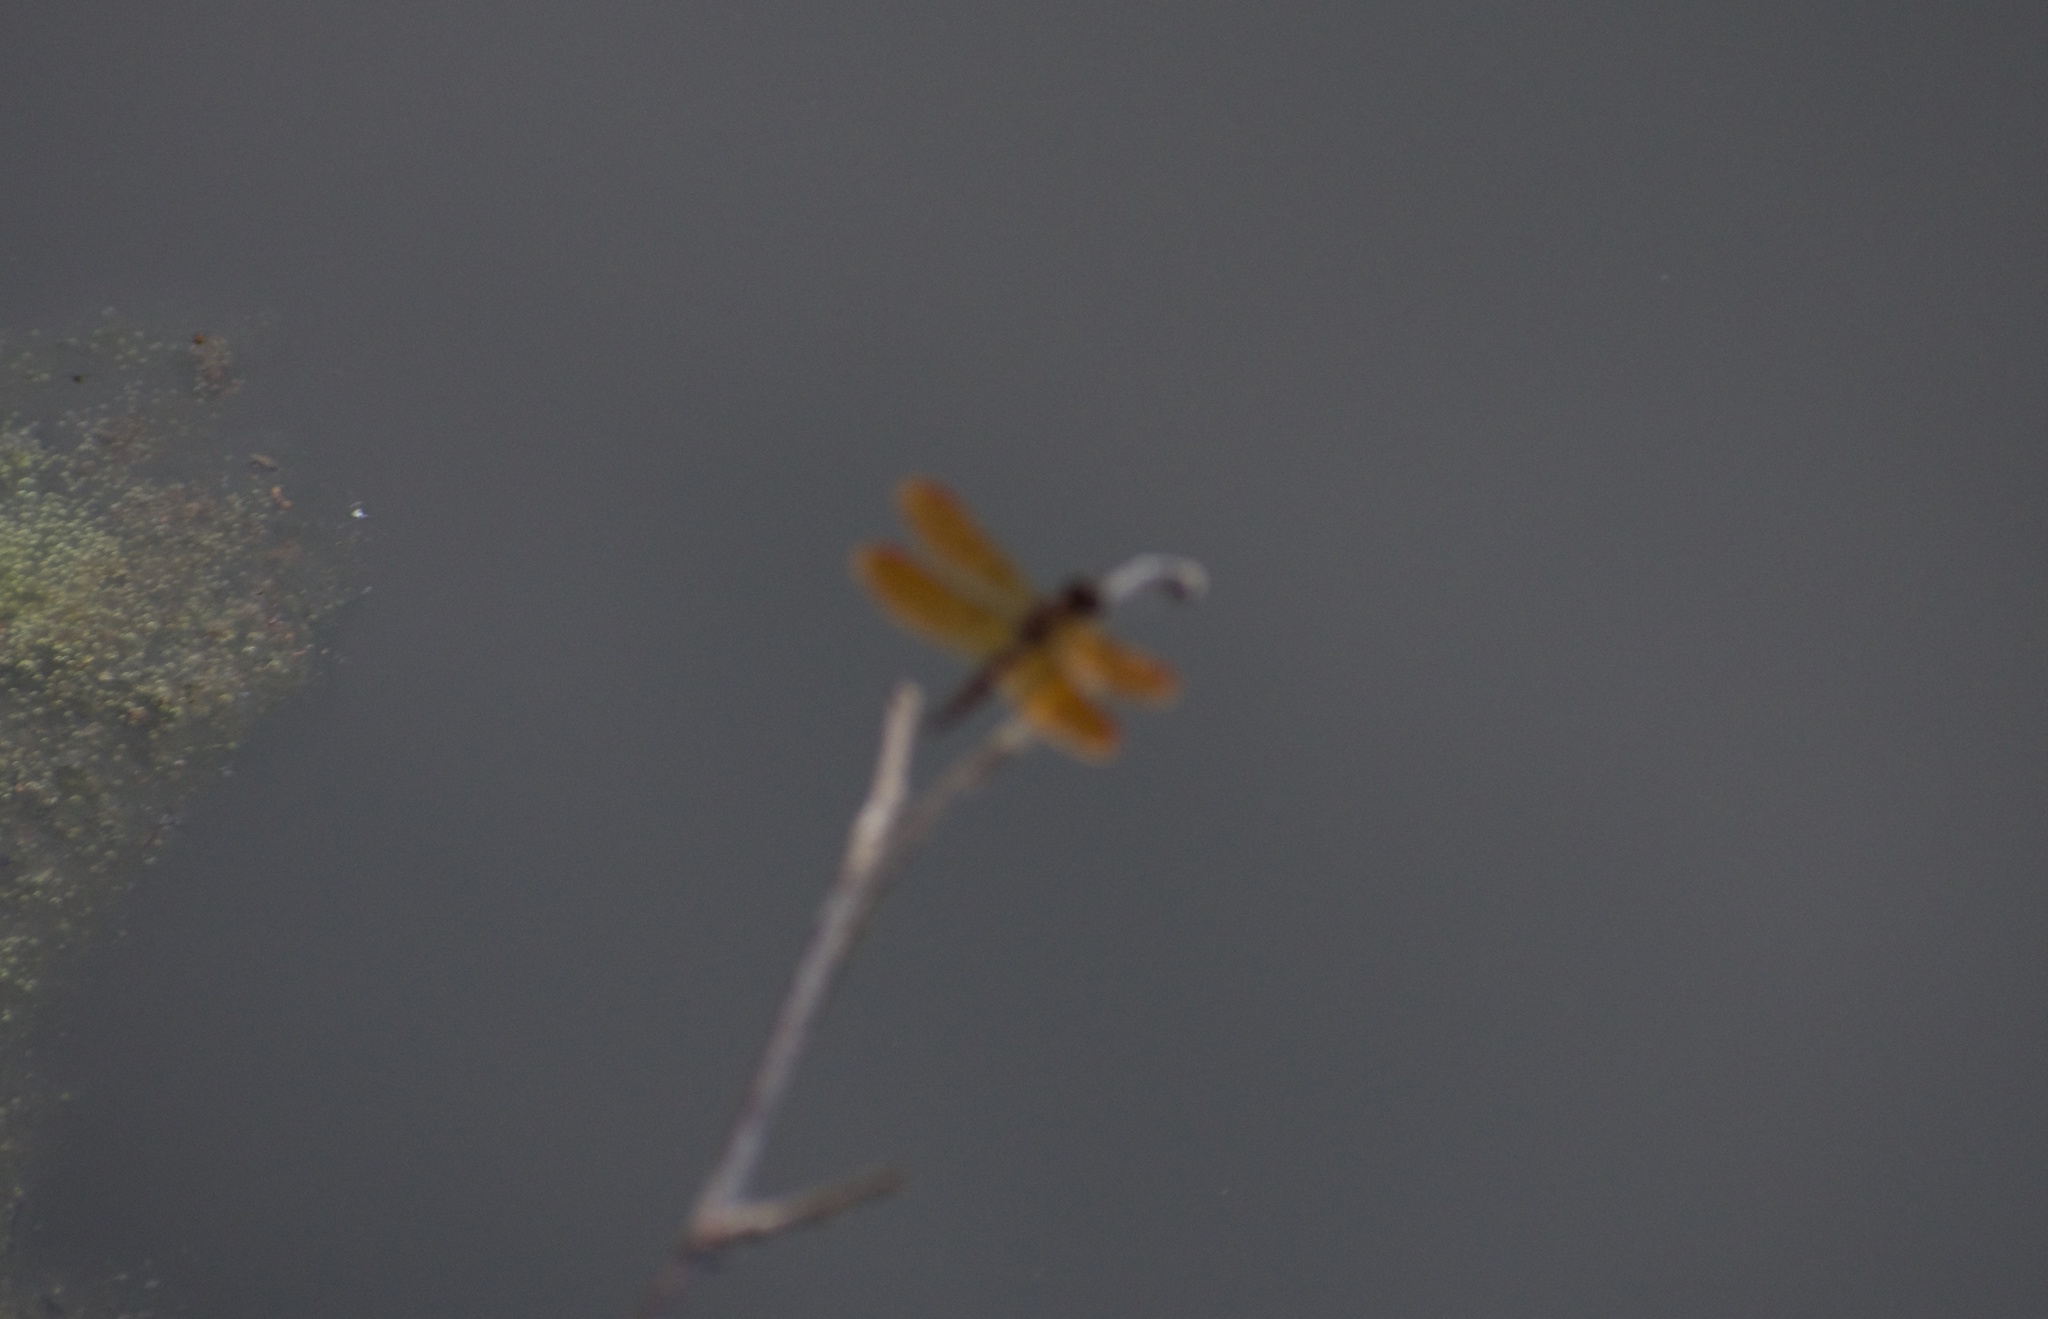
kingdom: Animalia
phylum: Arthropoda
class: Insecta
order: Odonata
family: Libellulidae
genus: Perithemis
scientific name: Perithemis tenera
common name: Eastern amberwing
